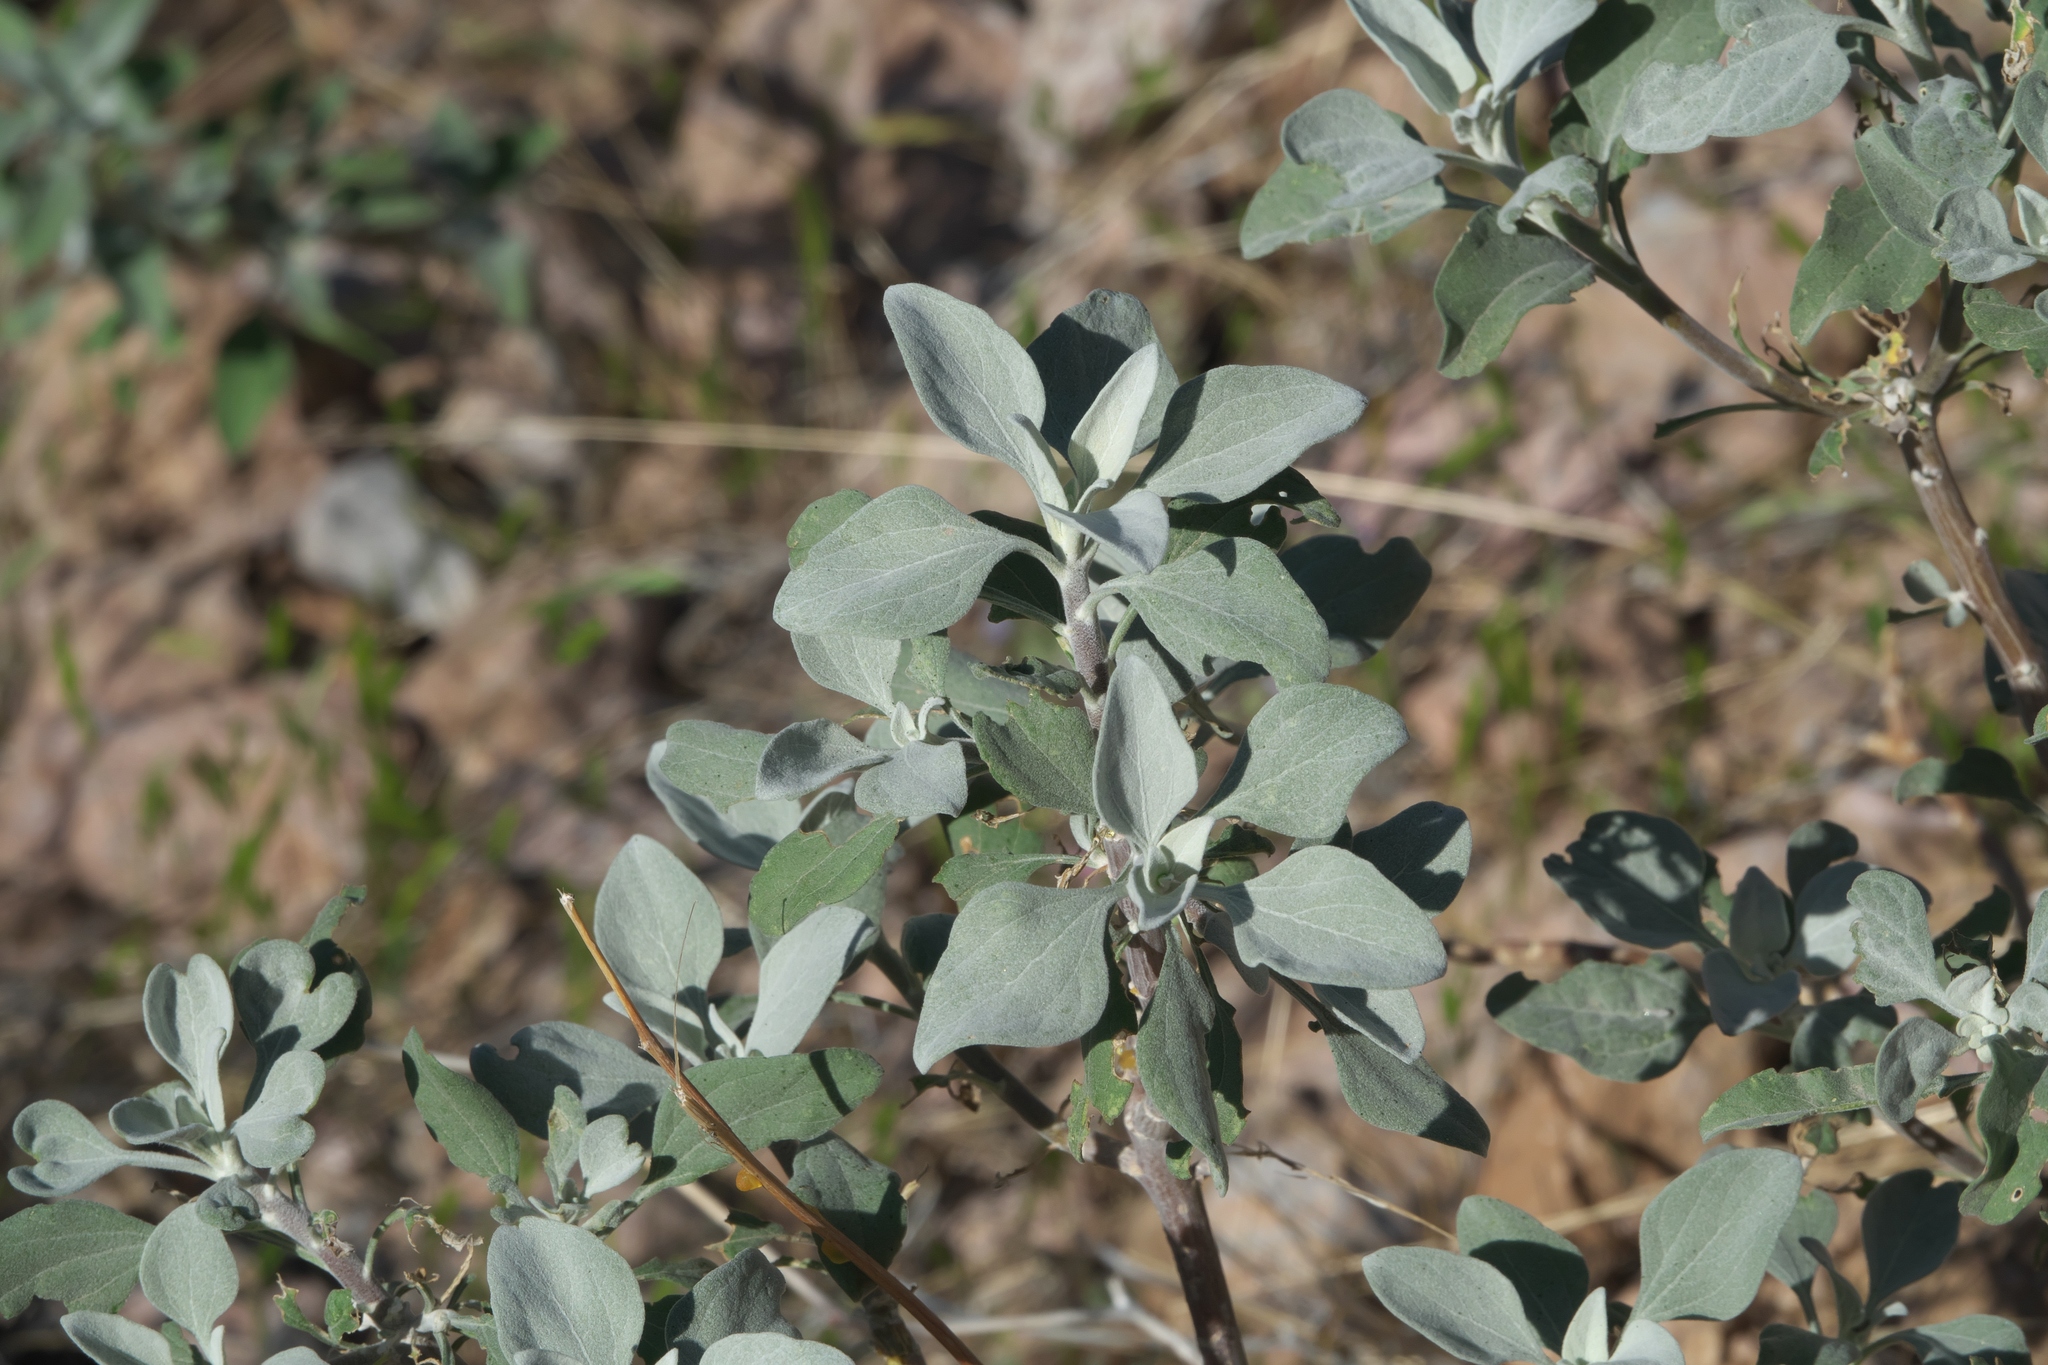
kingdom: Plantae
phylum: Tracheophyta
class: Magnoliopsida
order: Asterales
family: Asteraceae
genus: Encelia
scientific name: Encelia farinosa
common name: Brittlebush
